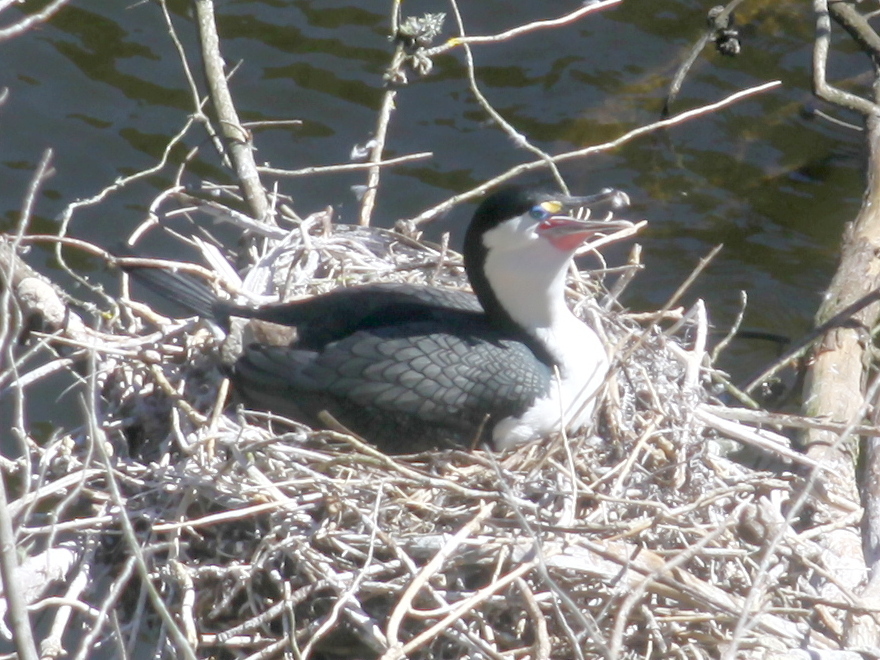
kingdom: Animalia
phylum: Chordata
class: Aves
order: Suliformes
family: Phalacrocoracidae
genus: Phalacrocorax
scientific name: Phalacrocorax varius
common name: Pied cormorant
